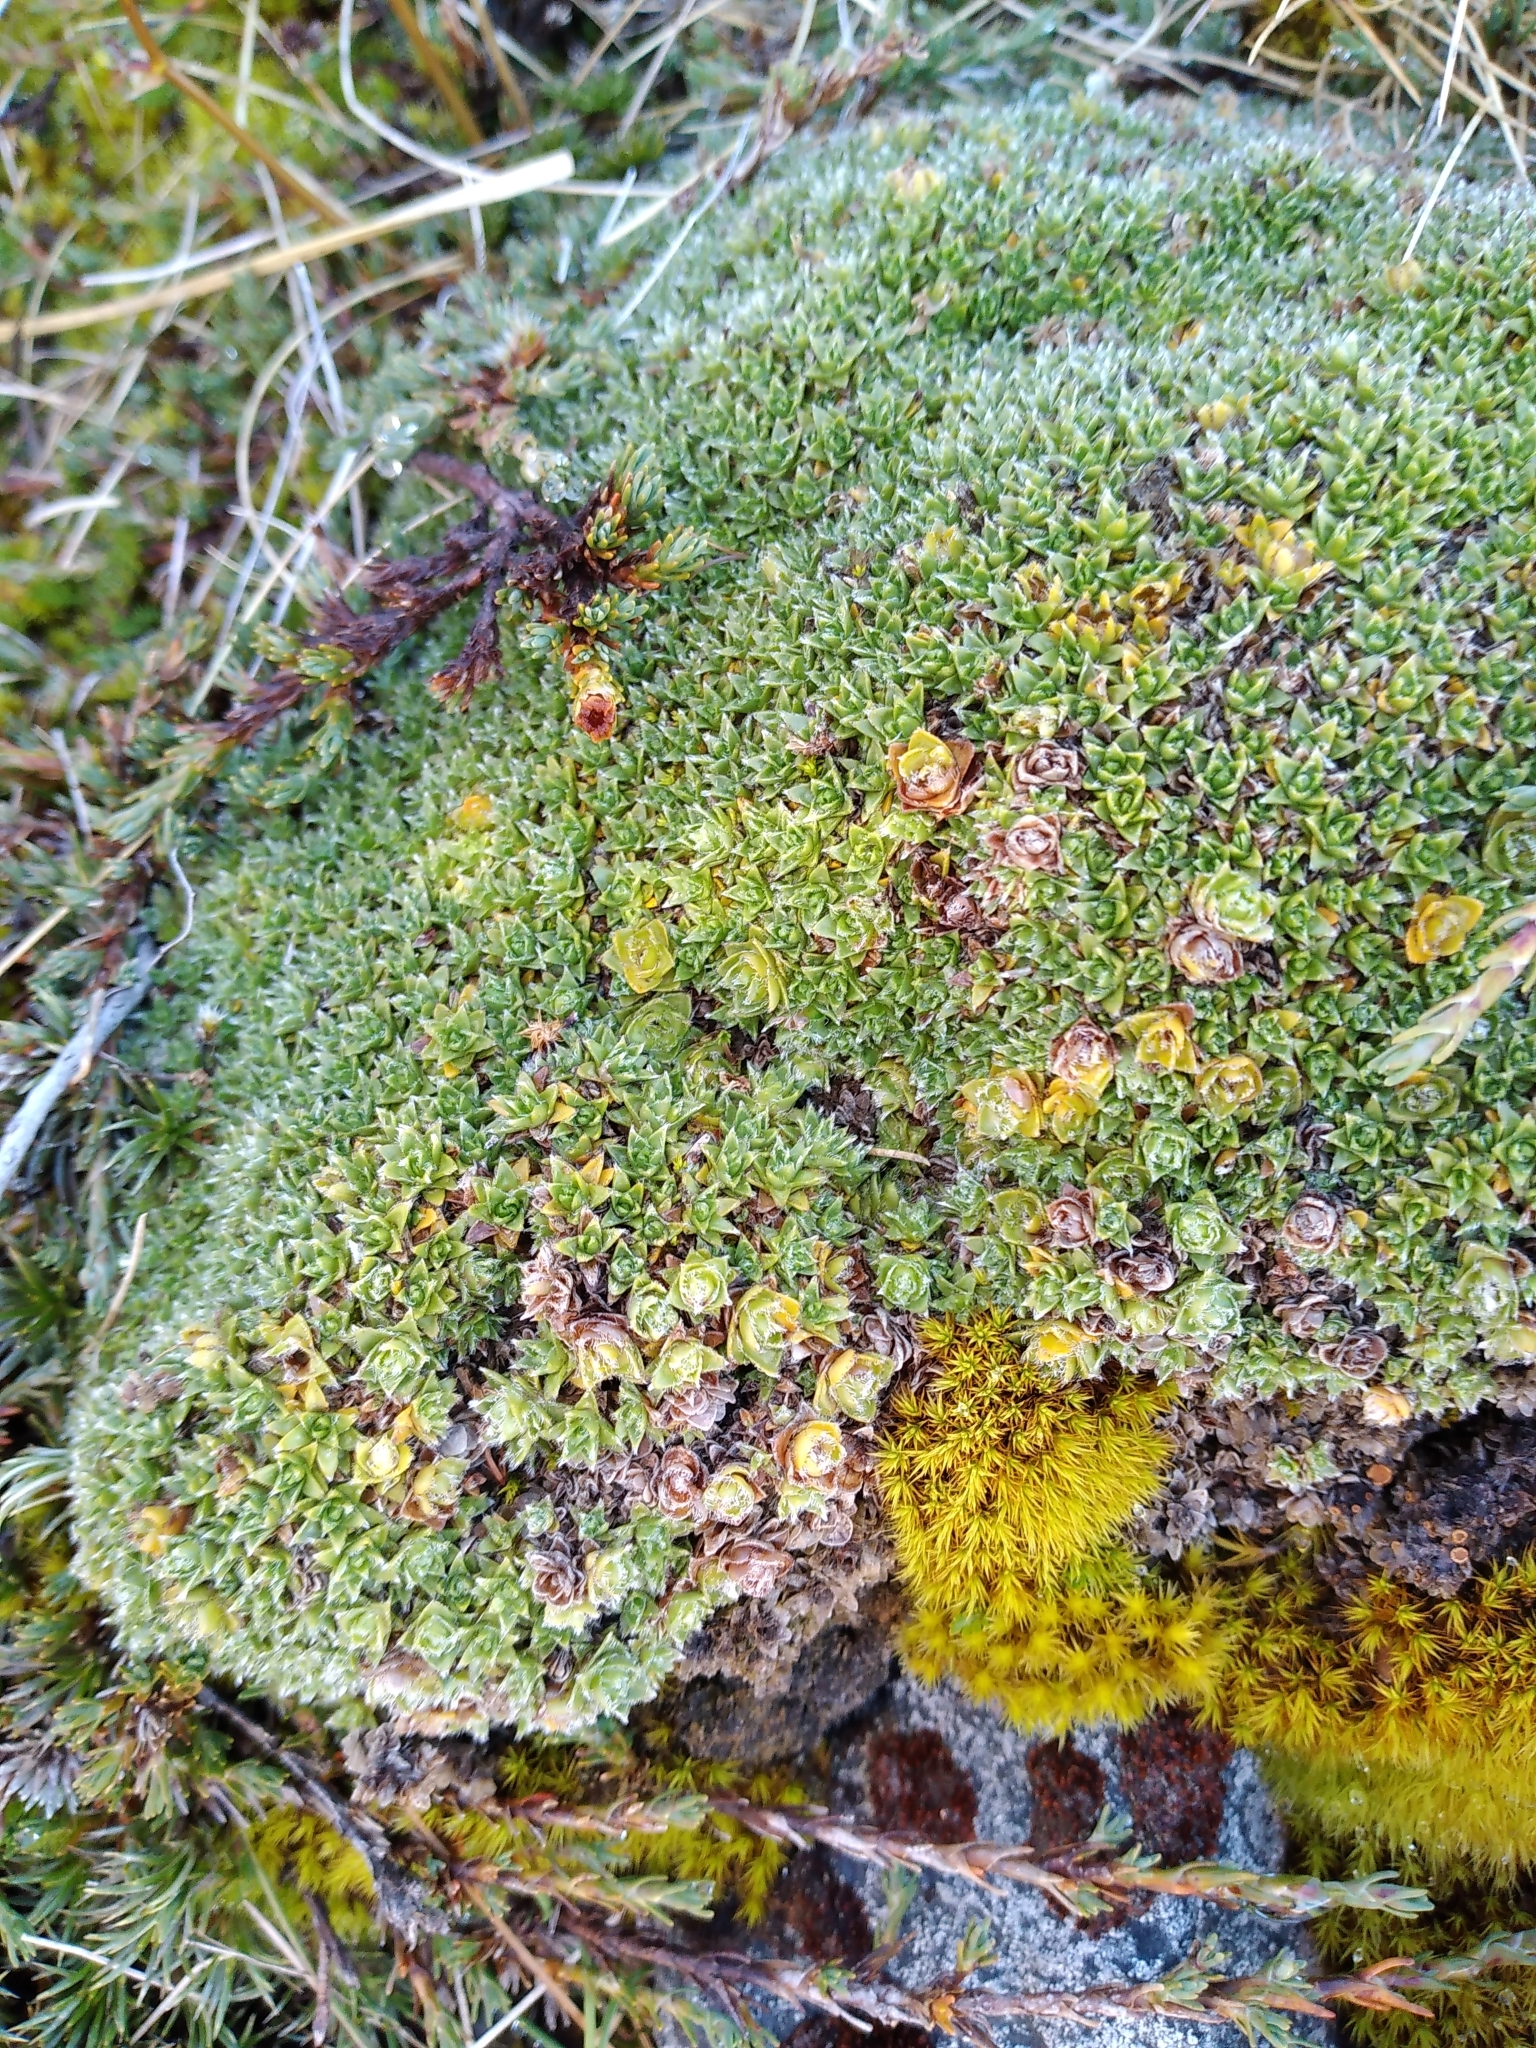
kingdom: Plantae
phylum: Tracheophyta
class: Magnoliopsida
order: Lamiales
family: Plantaginaceae
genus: Veronica
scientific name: Veronica ciliolata
